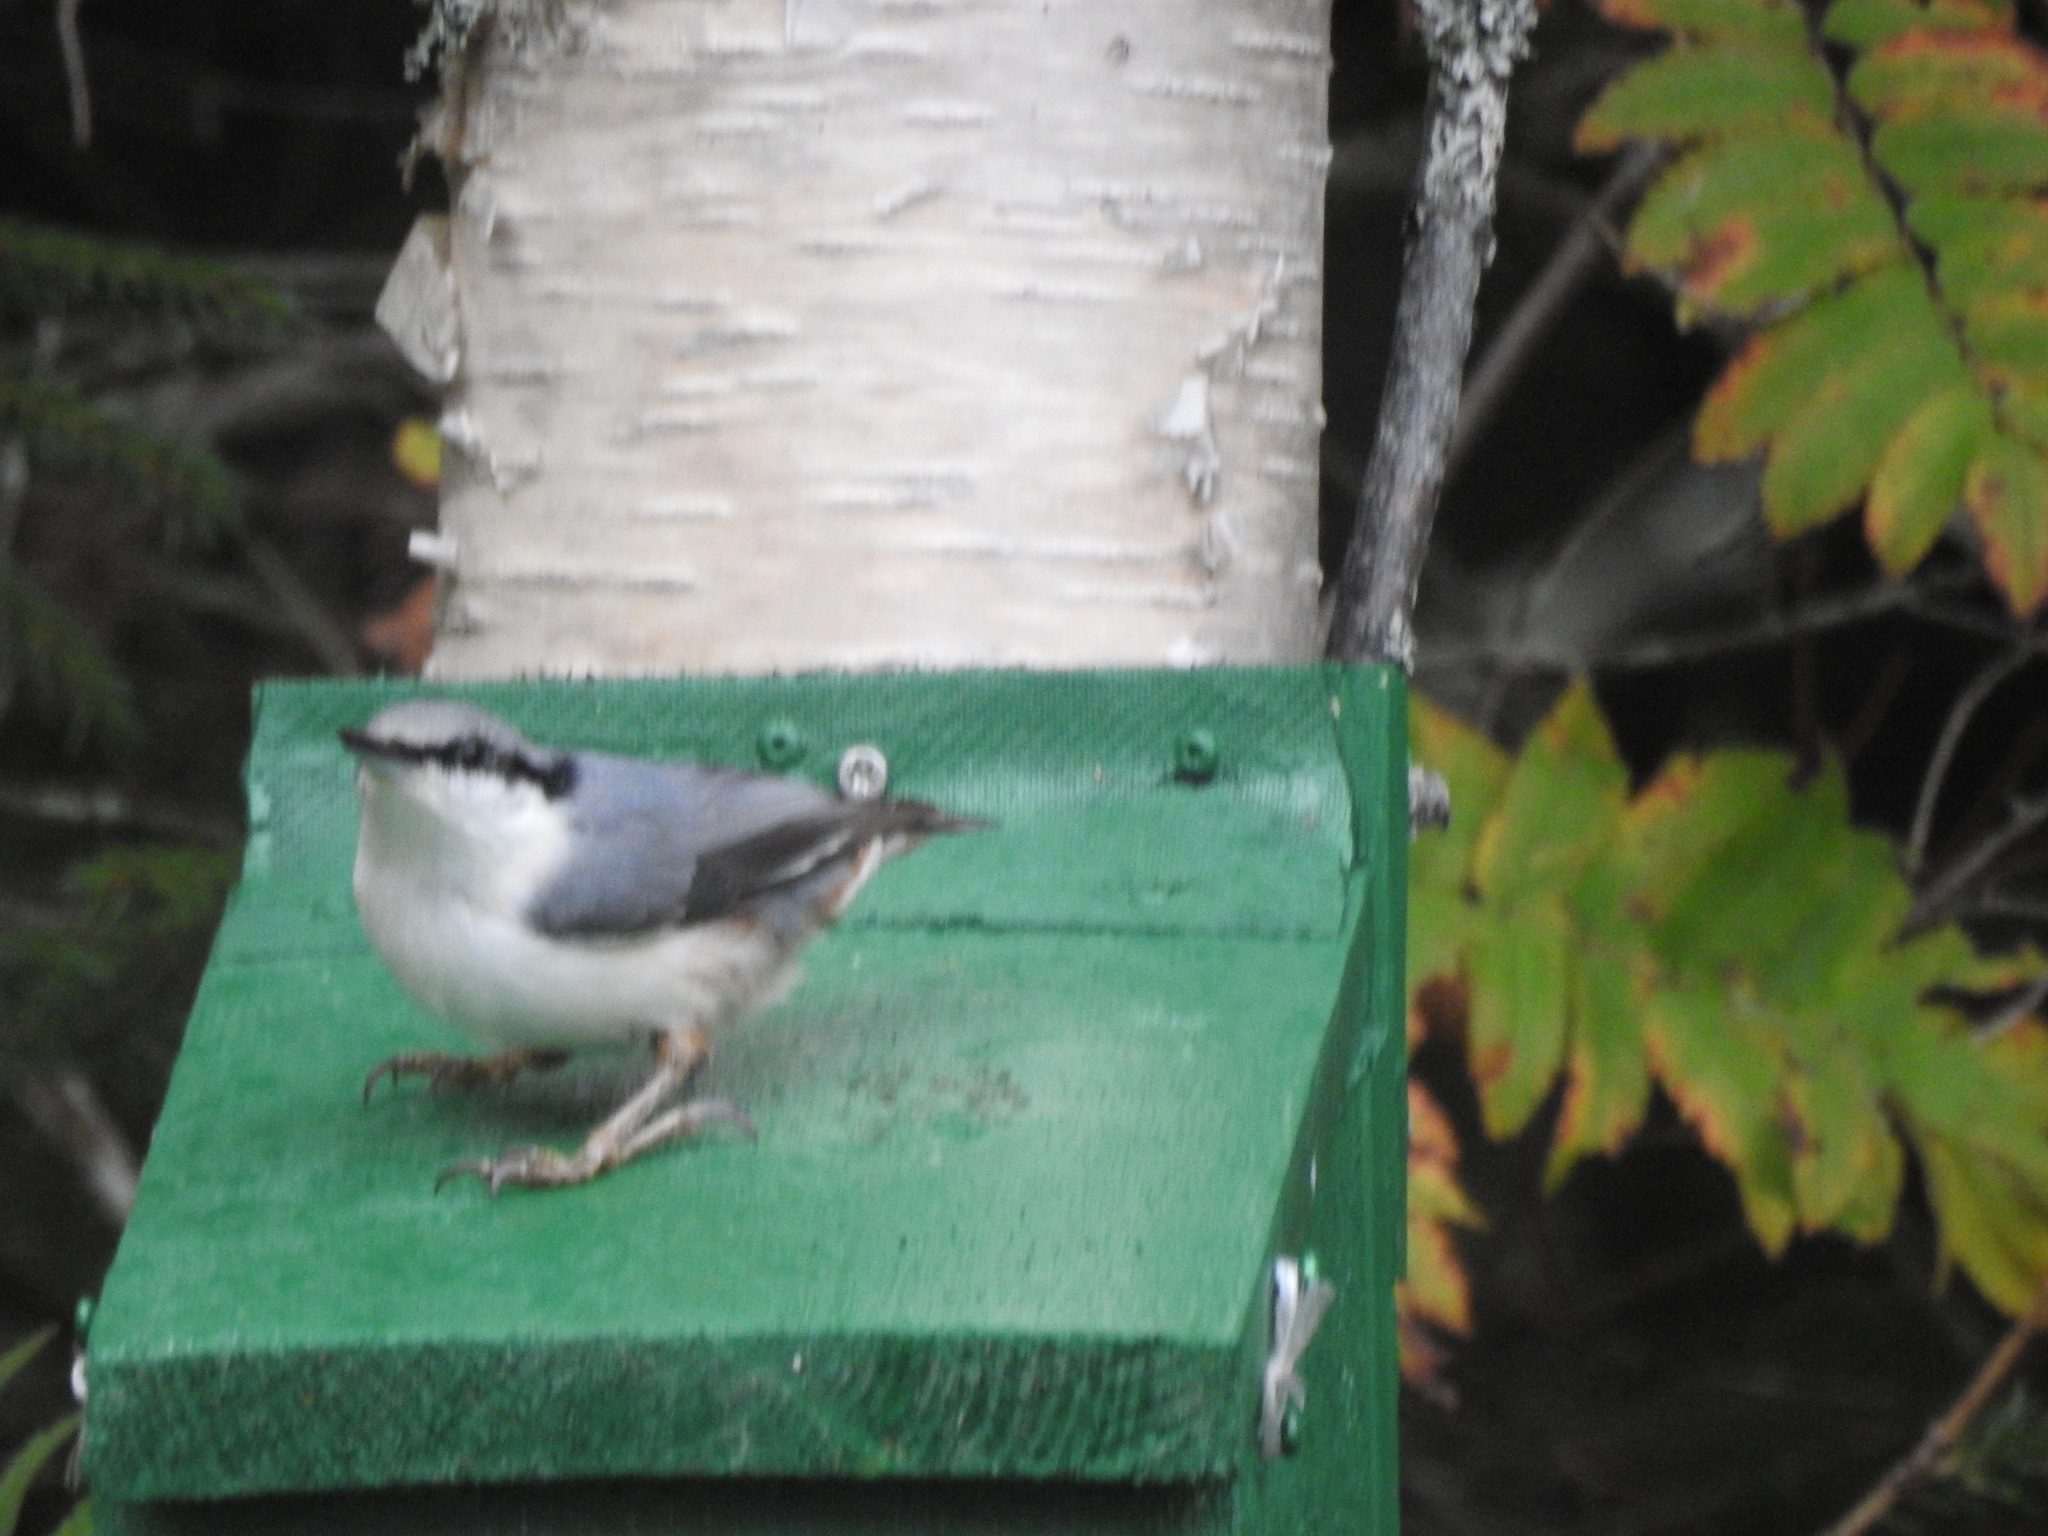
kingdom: Animalia
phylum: Chordata
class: Aves
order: Passeriformes
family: Sittidae
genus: Sitta
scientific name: Sitta europaea
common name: Eurasian nuthatch
